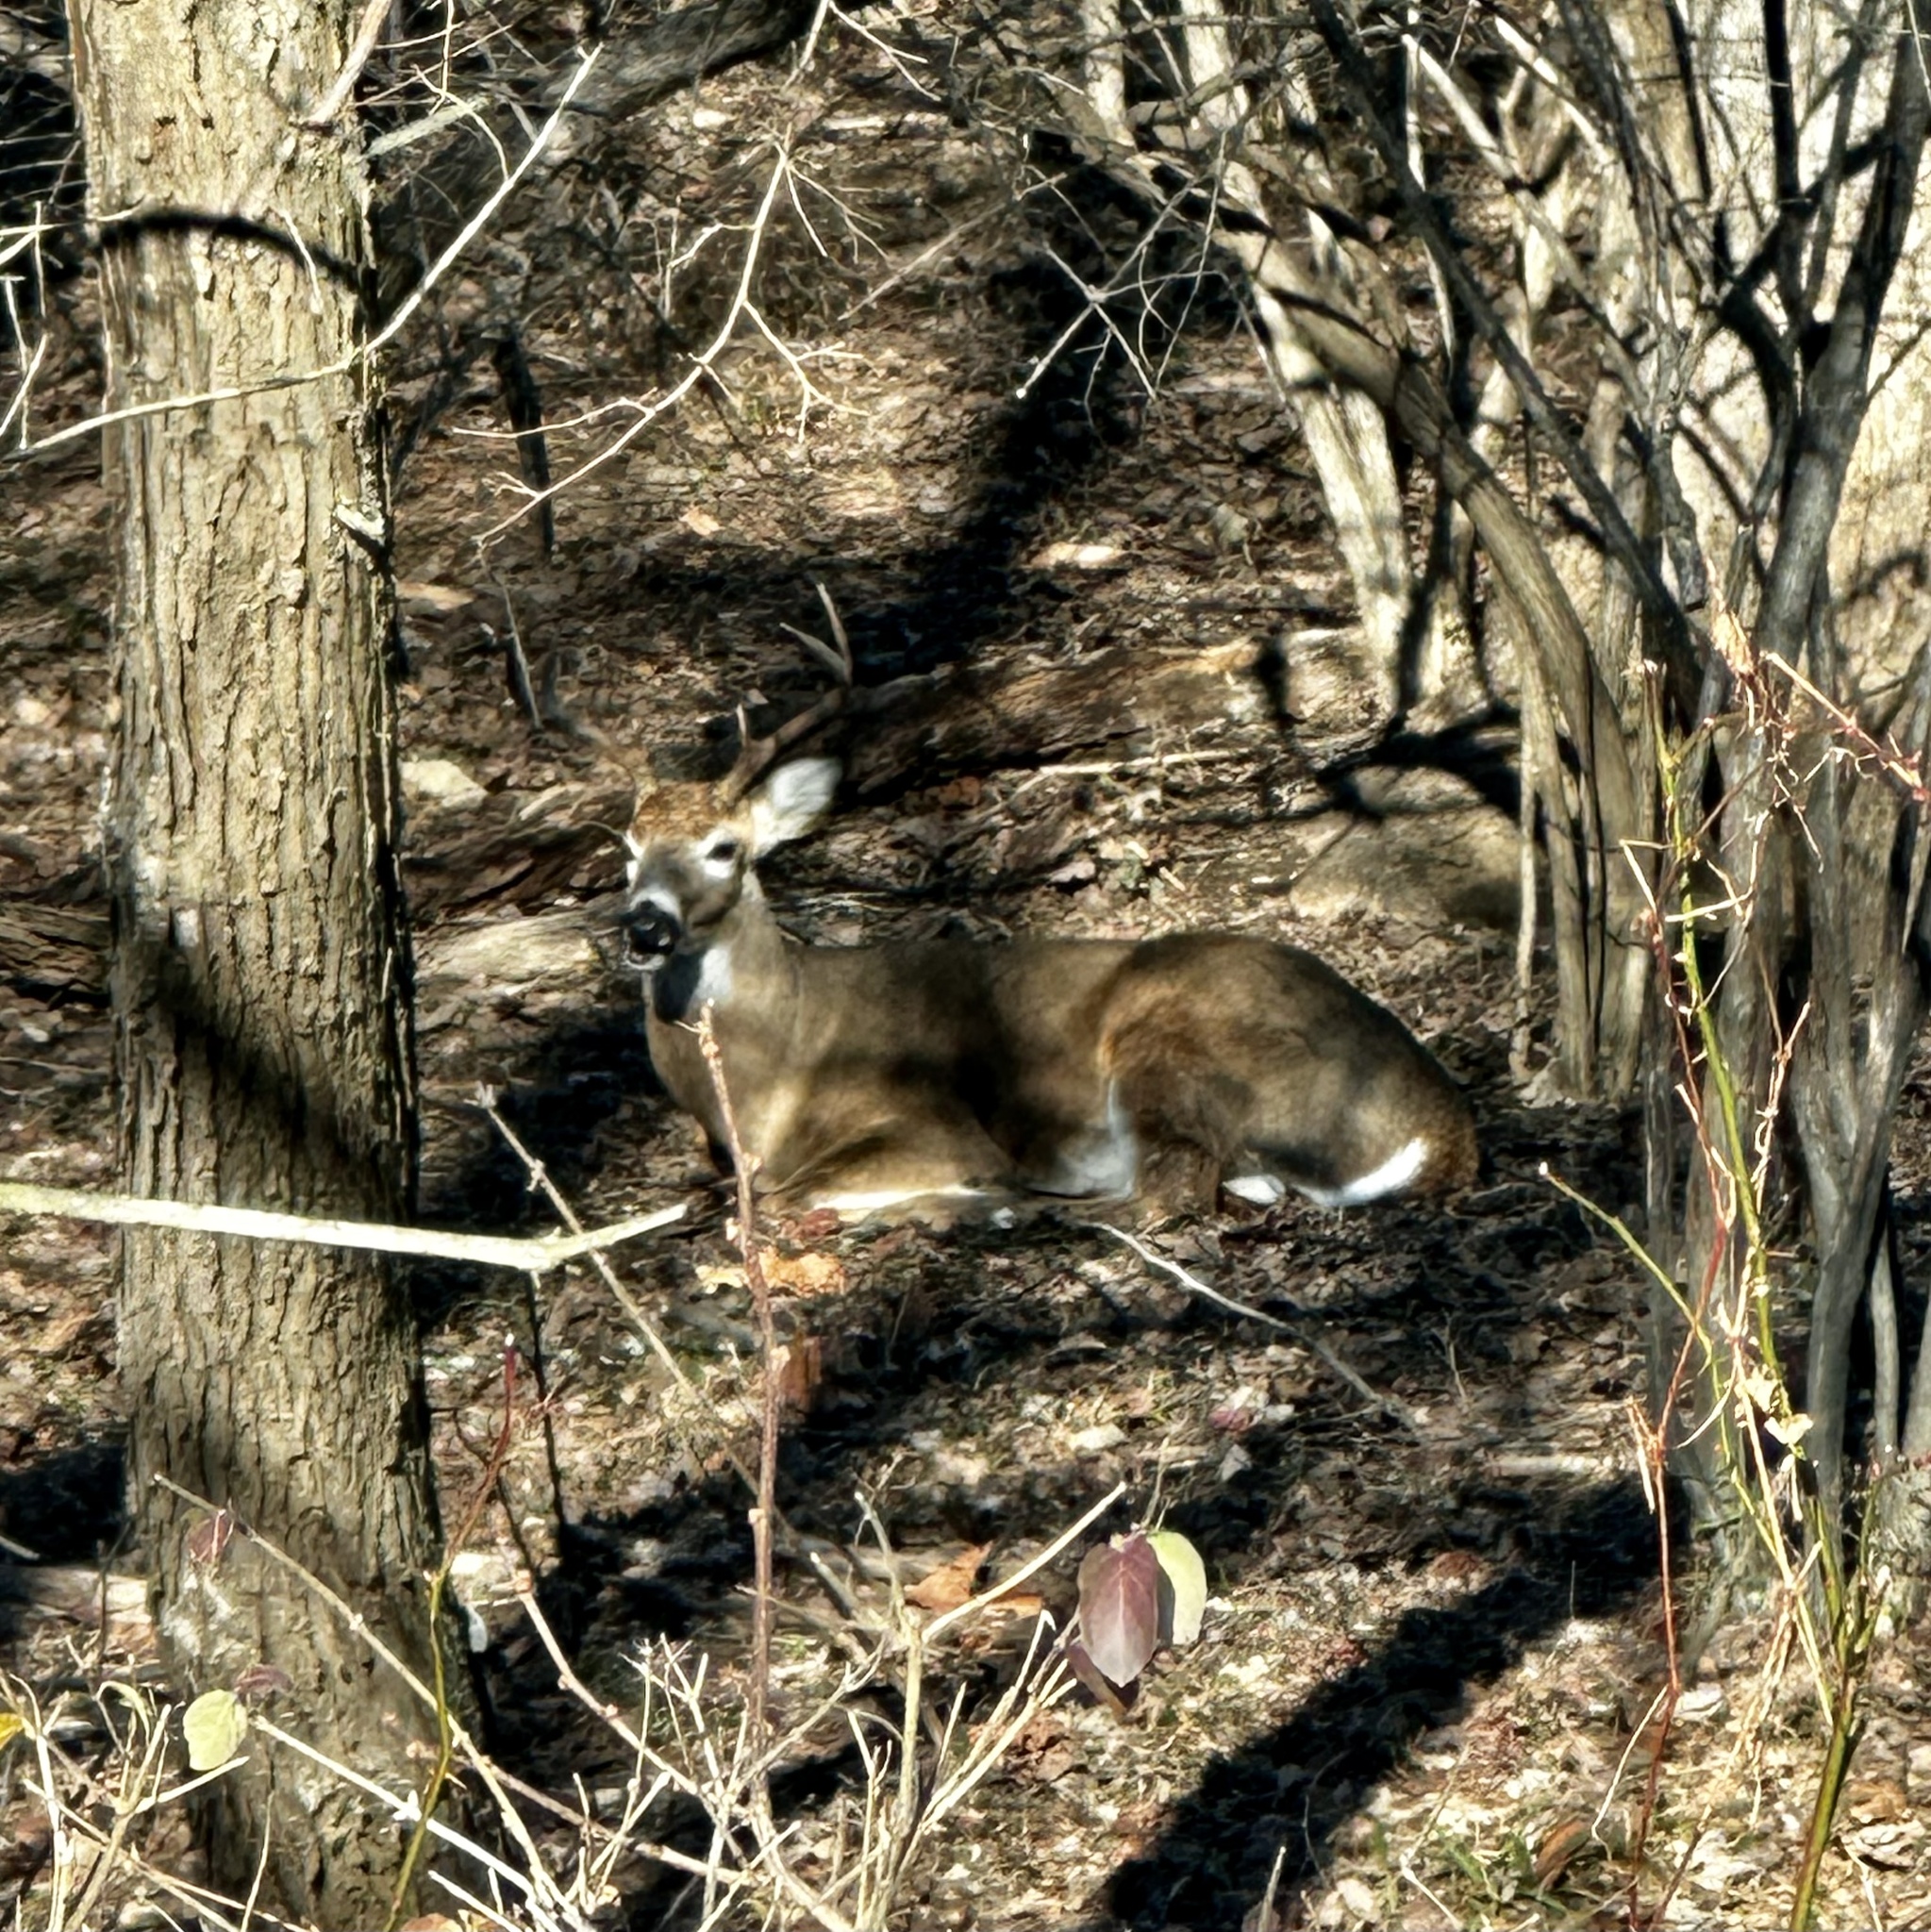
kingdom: Animalia
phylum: Chordata
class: Mammalia
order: Artiodactyla
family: Cervidae
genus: Odocoileus
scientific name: Odocoileus virginianus
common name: White-tailed deer
